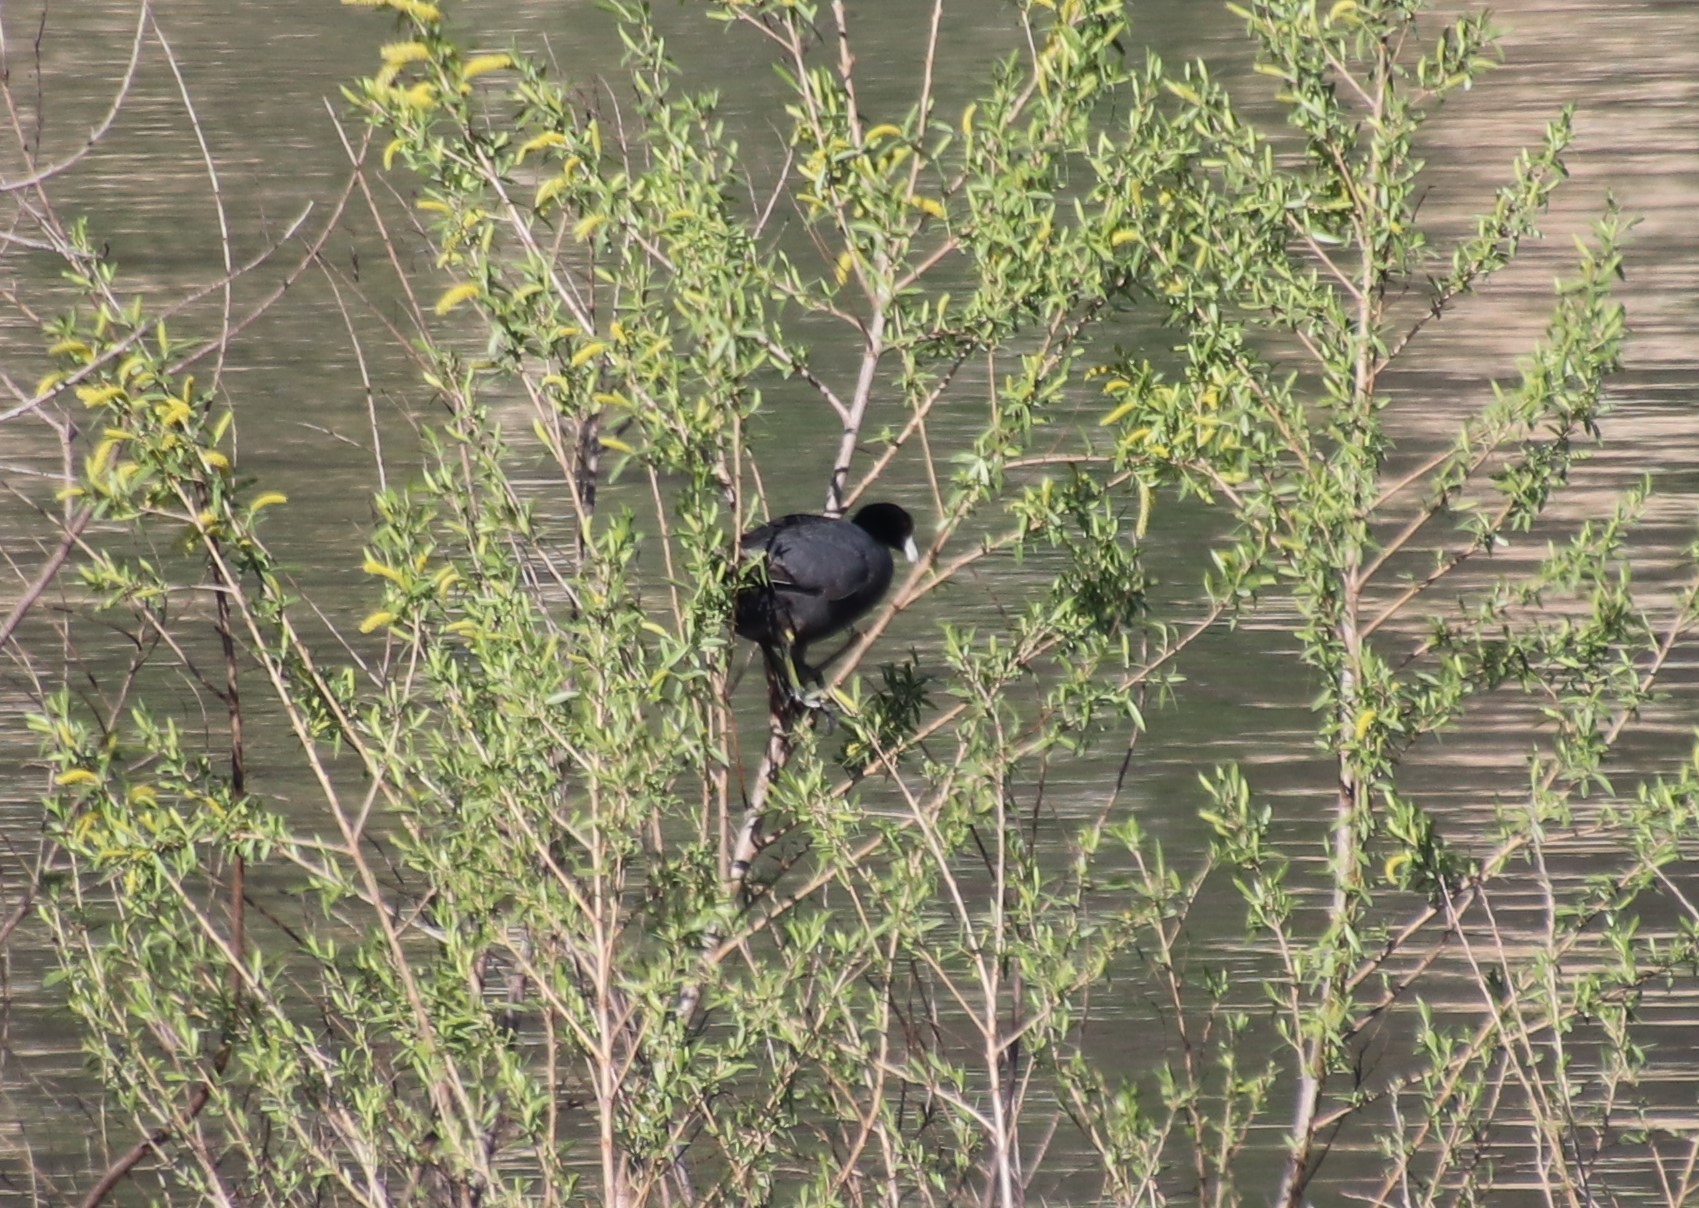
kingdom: Animalia
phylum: Chordata
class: Aves
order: Gruiformes
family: Rallidae
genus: Fulica
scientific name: Fulica americana
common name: American coot
